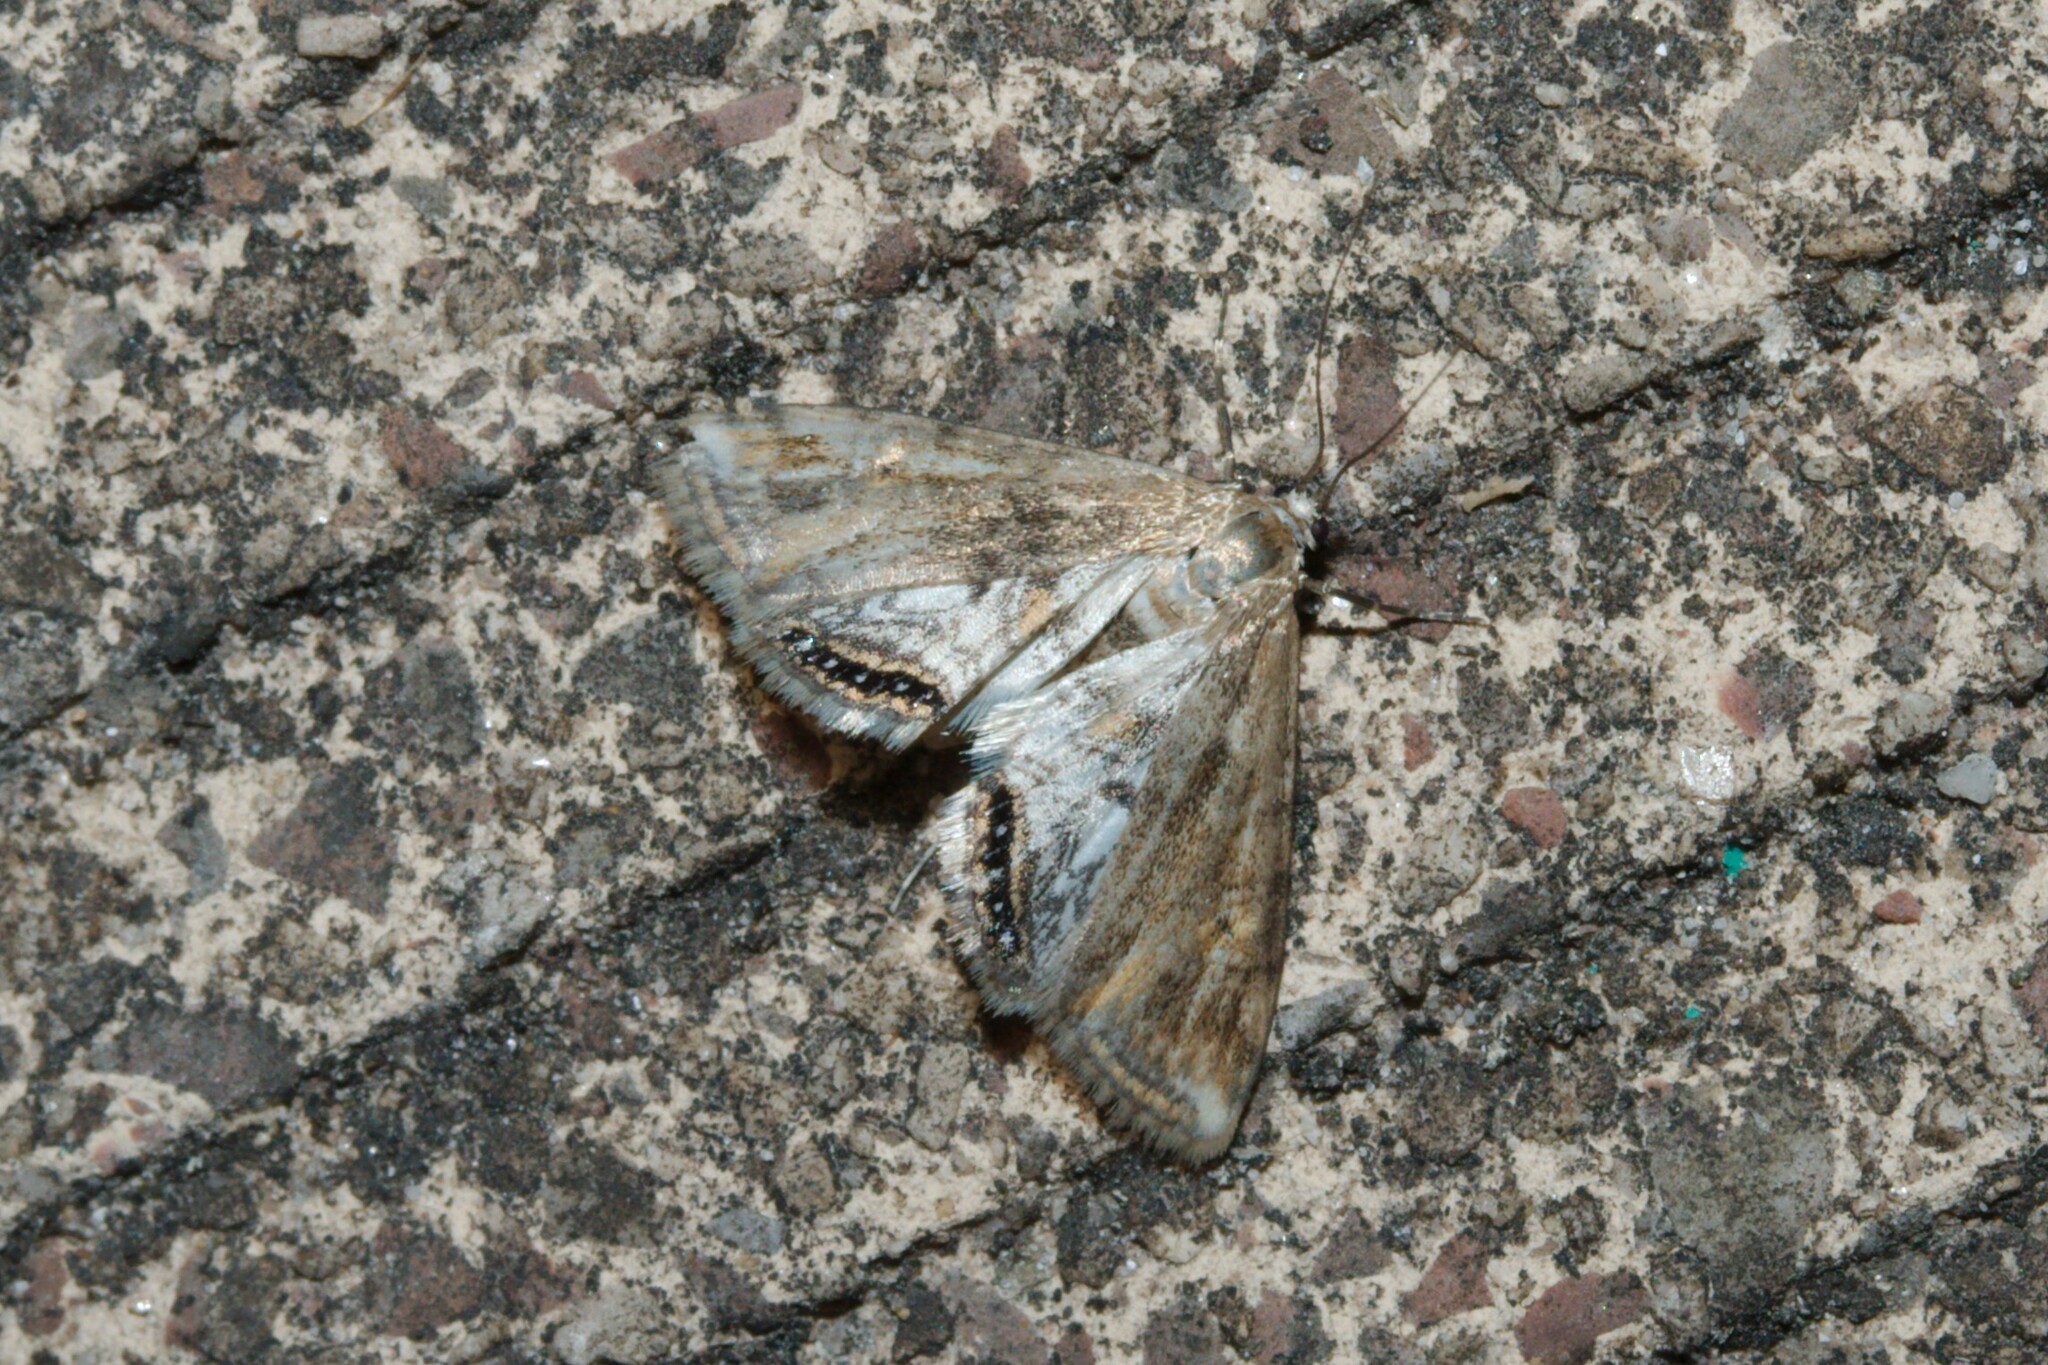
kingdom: Animalia
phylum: Arthropoda
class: Insecta
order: Lepidoptera
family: Crambidae
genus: Cataclysta
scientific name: Cataclysta lemnata
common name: Small china-mark
